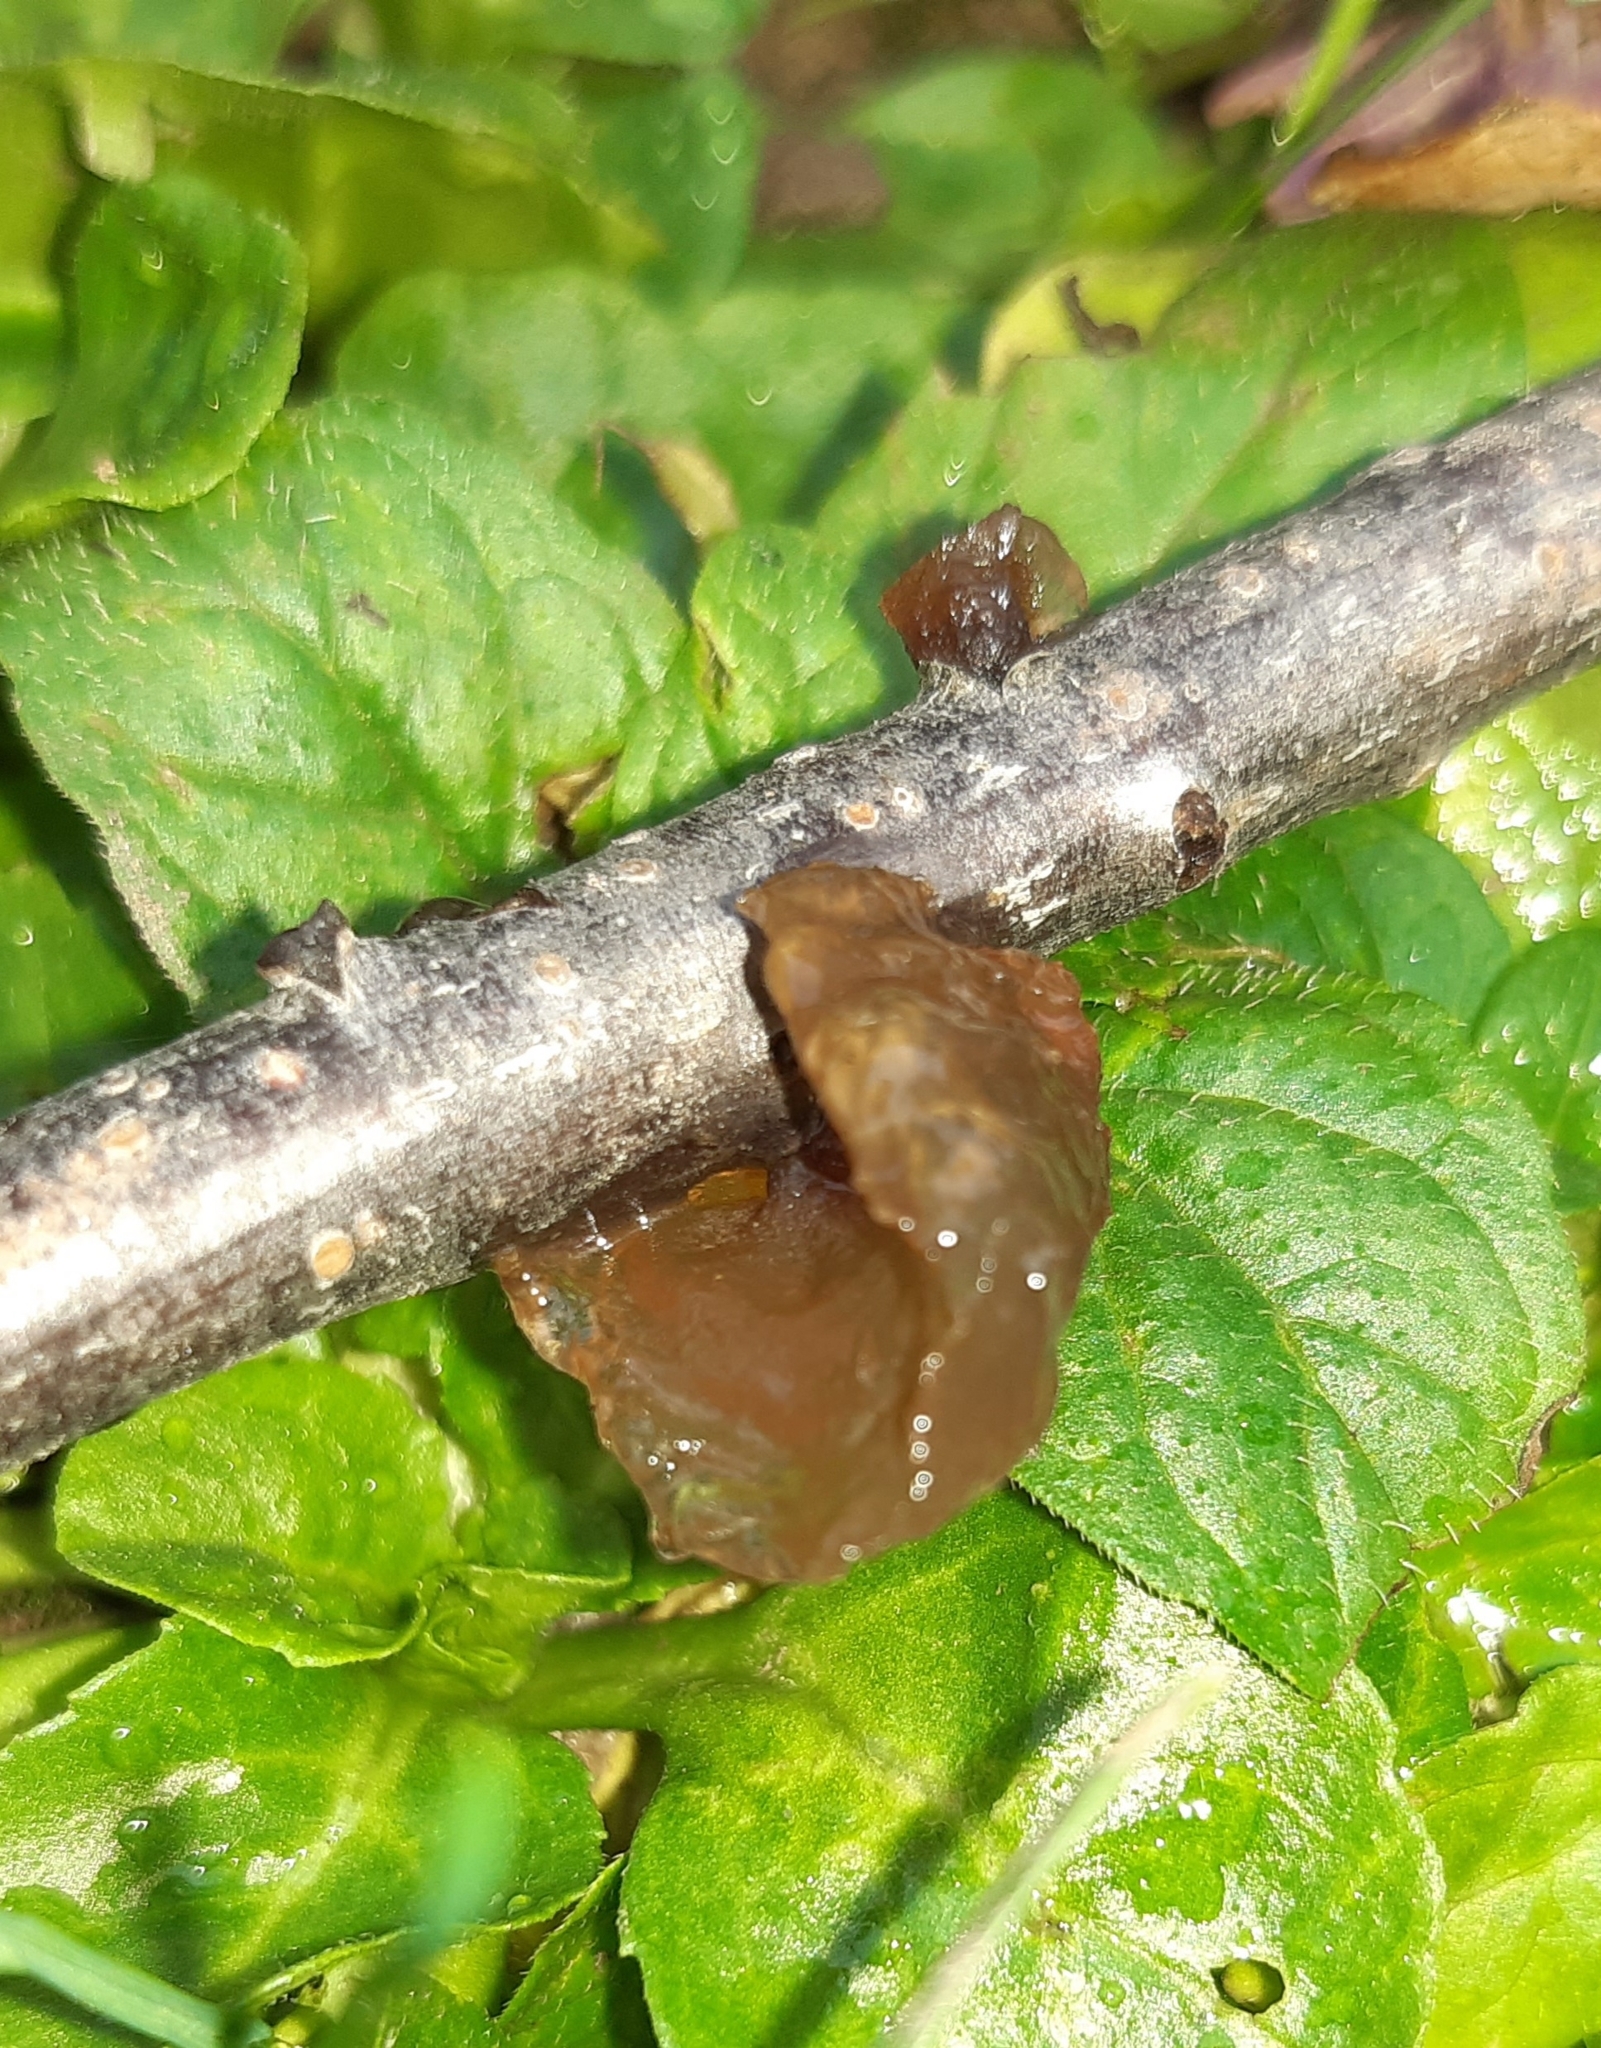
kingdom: Fungi
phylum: Basidiomycota
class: Agaricomycetes
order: Auriculariales
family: Auriculariaceae
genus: Exidia
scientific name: Exidia recisa
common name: Amber jelly
